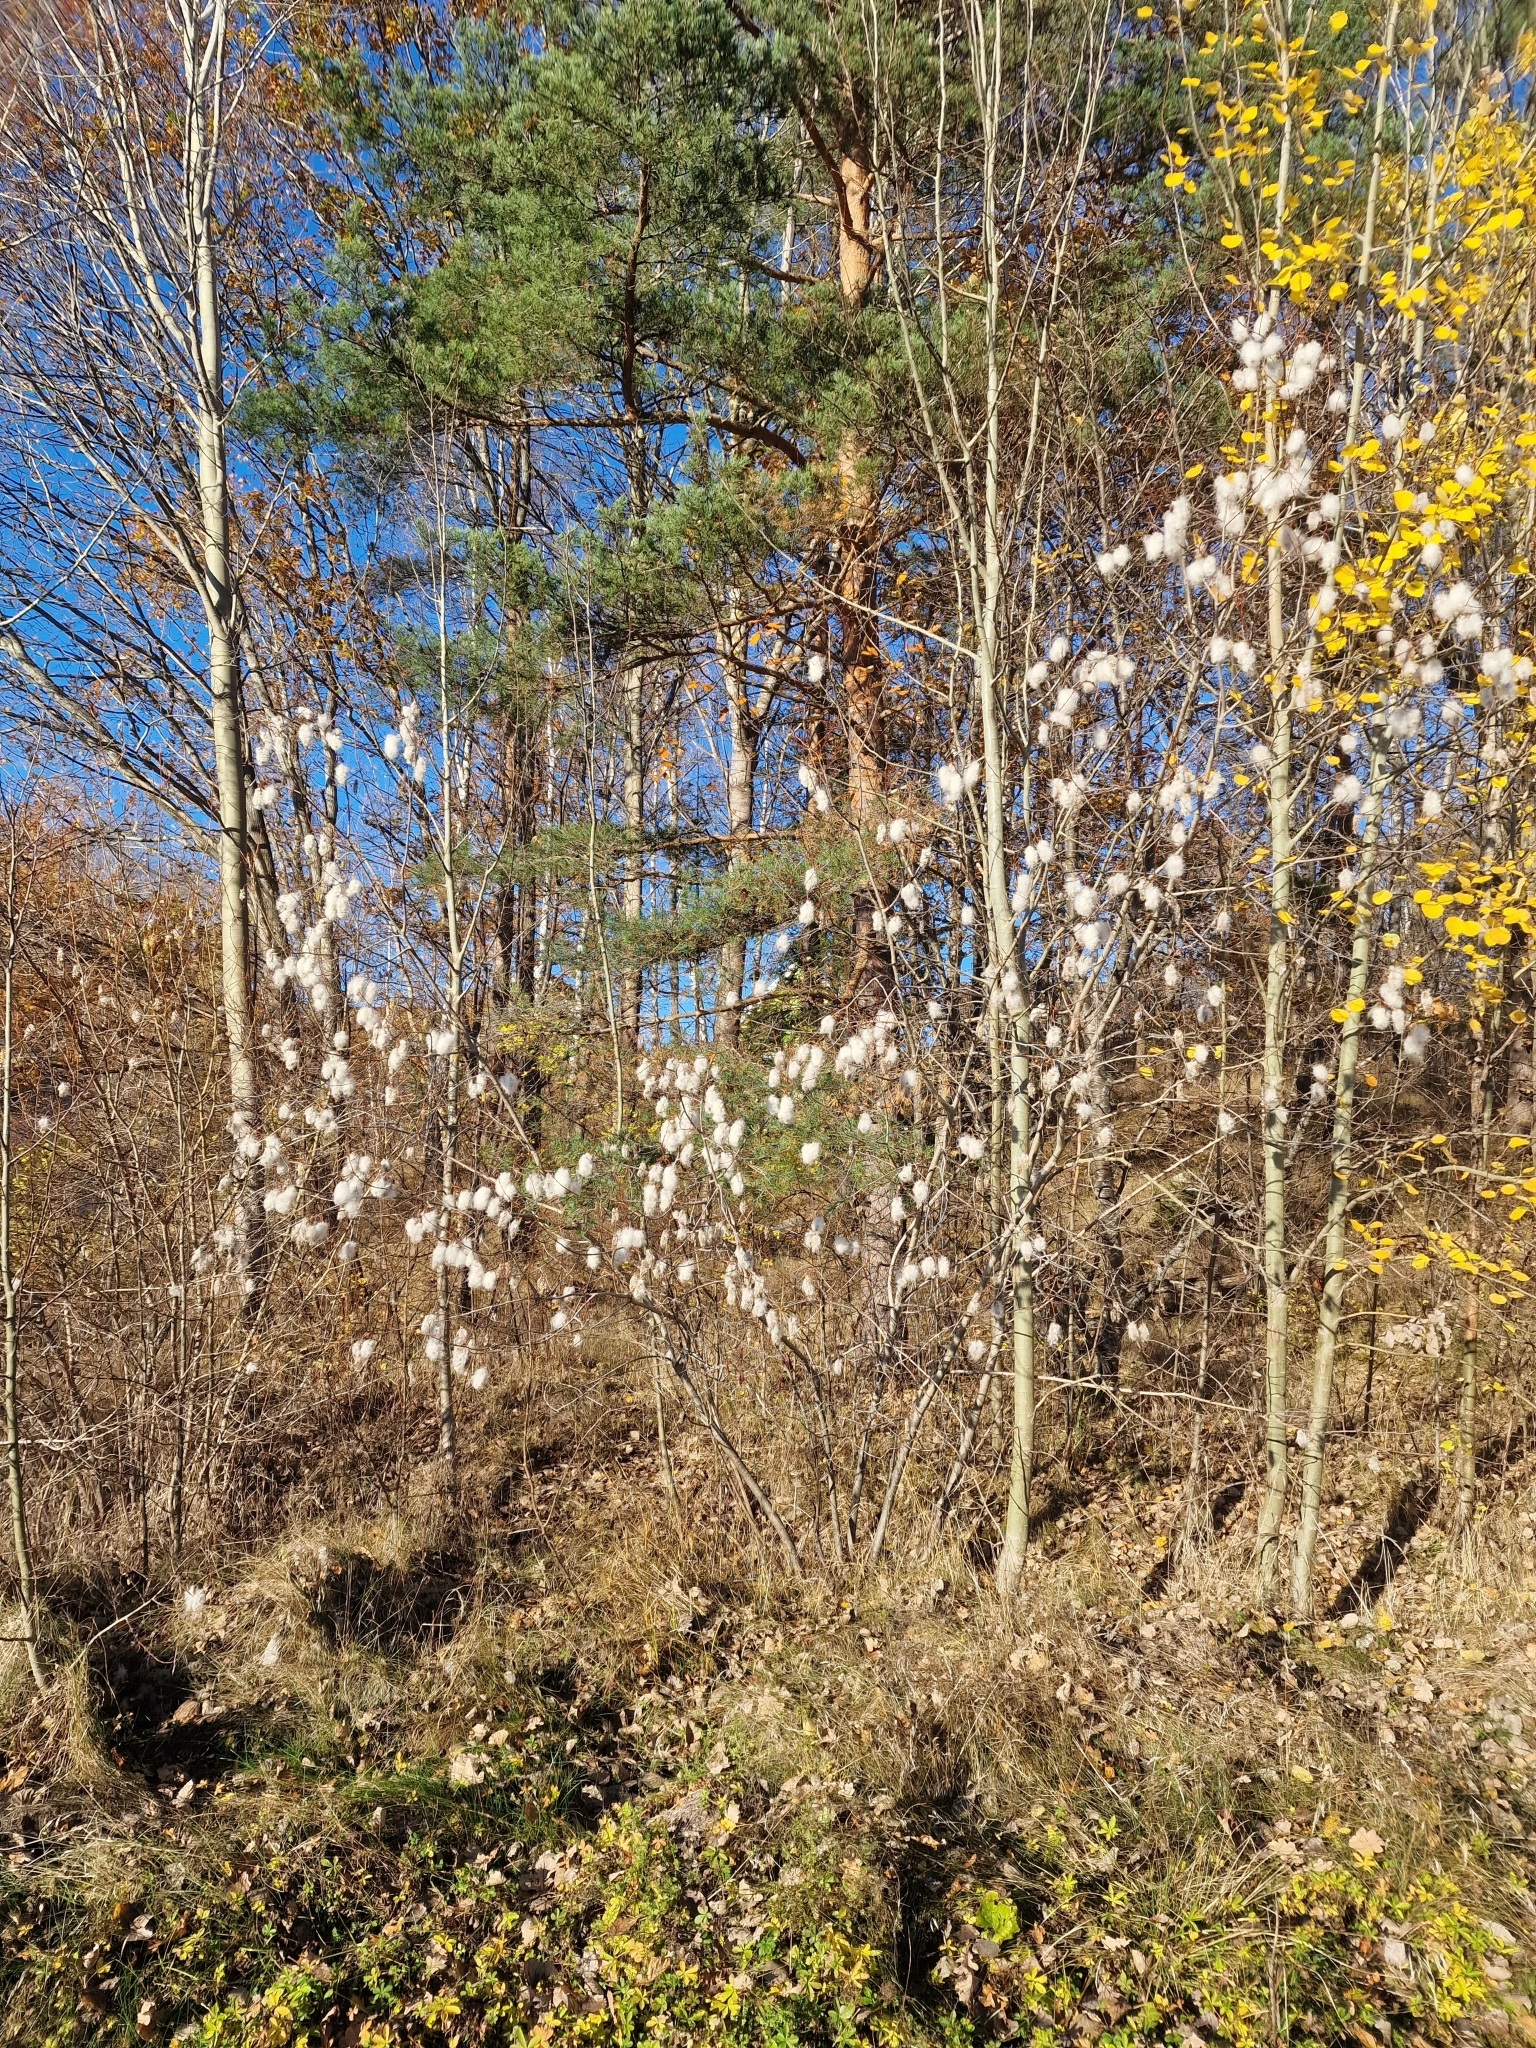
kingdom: Plantae
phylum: Tracheophyta
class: Magnoliopsida
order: Malpighiales
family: Salicaceae
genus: Salix
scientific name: Salix pentandra
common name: Bay willow
